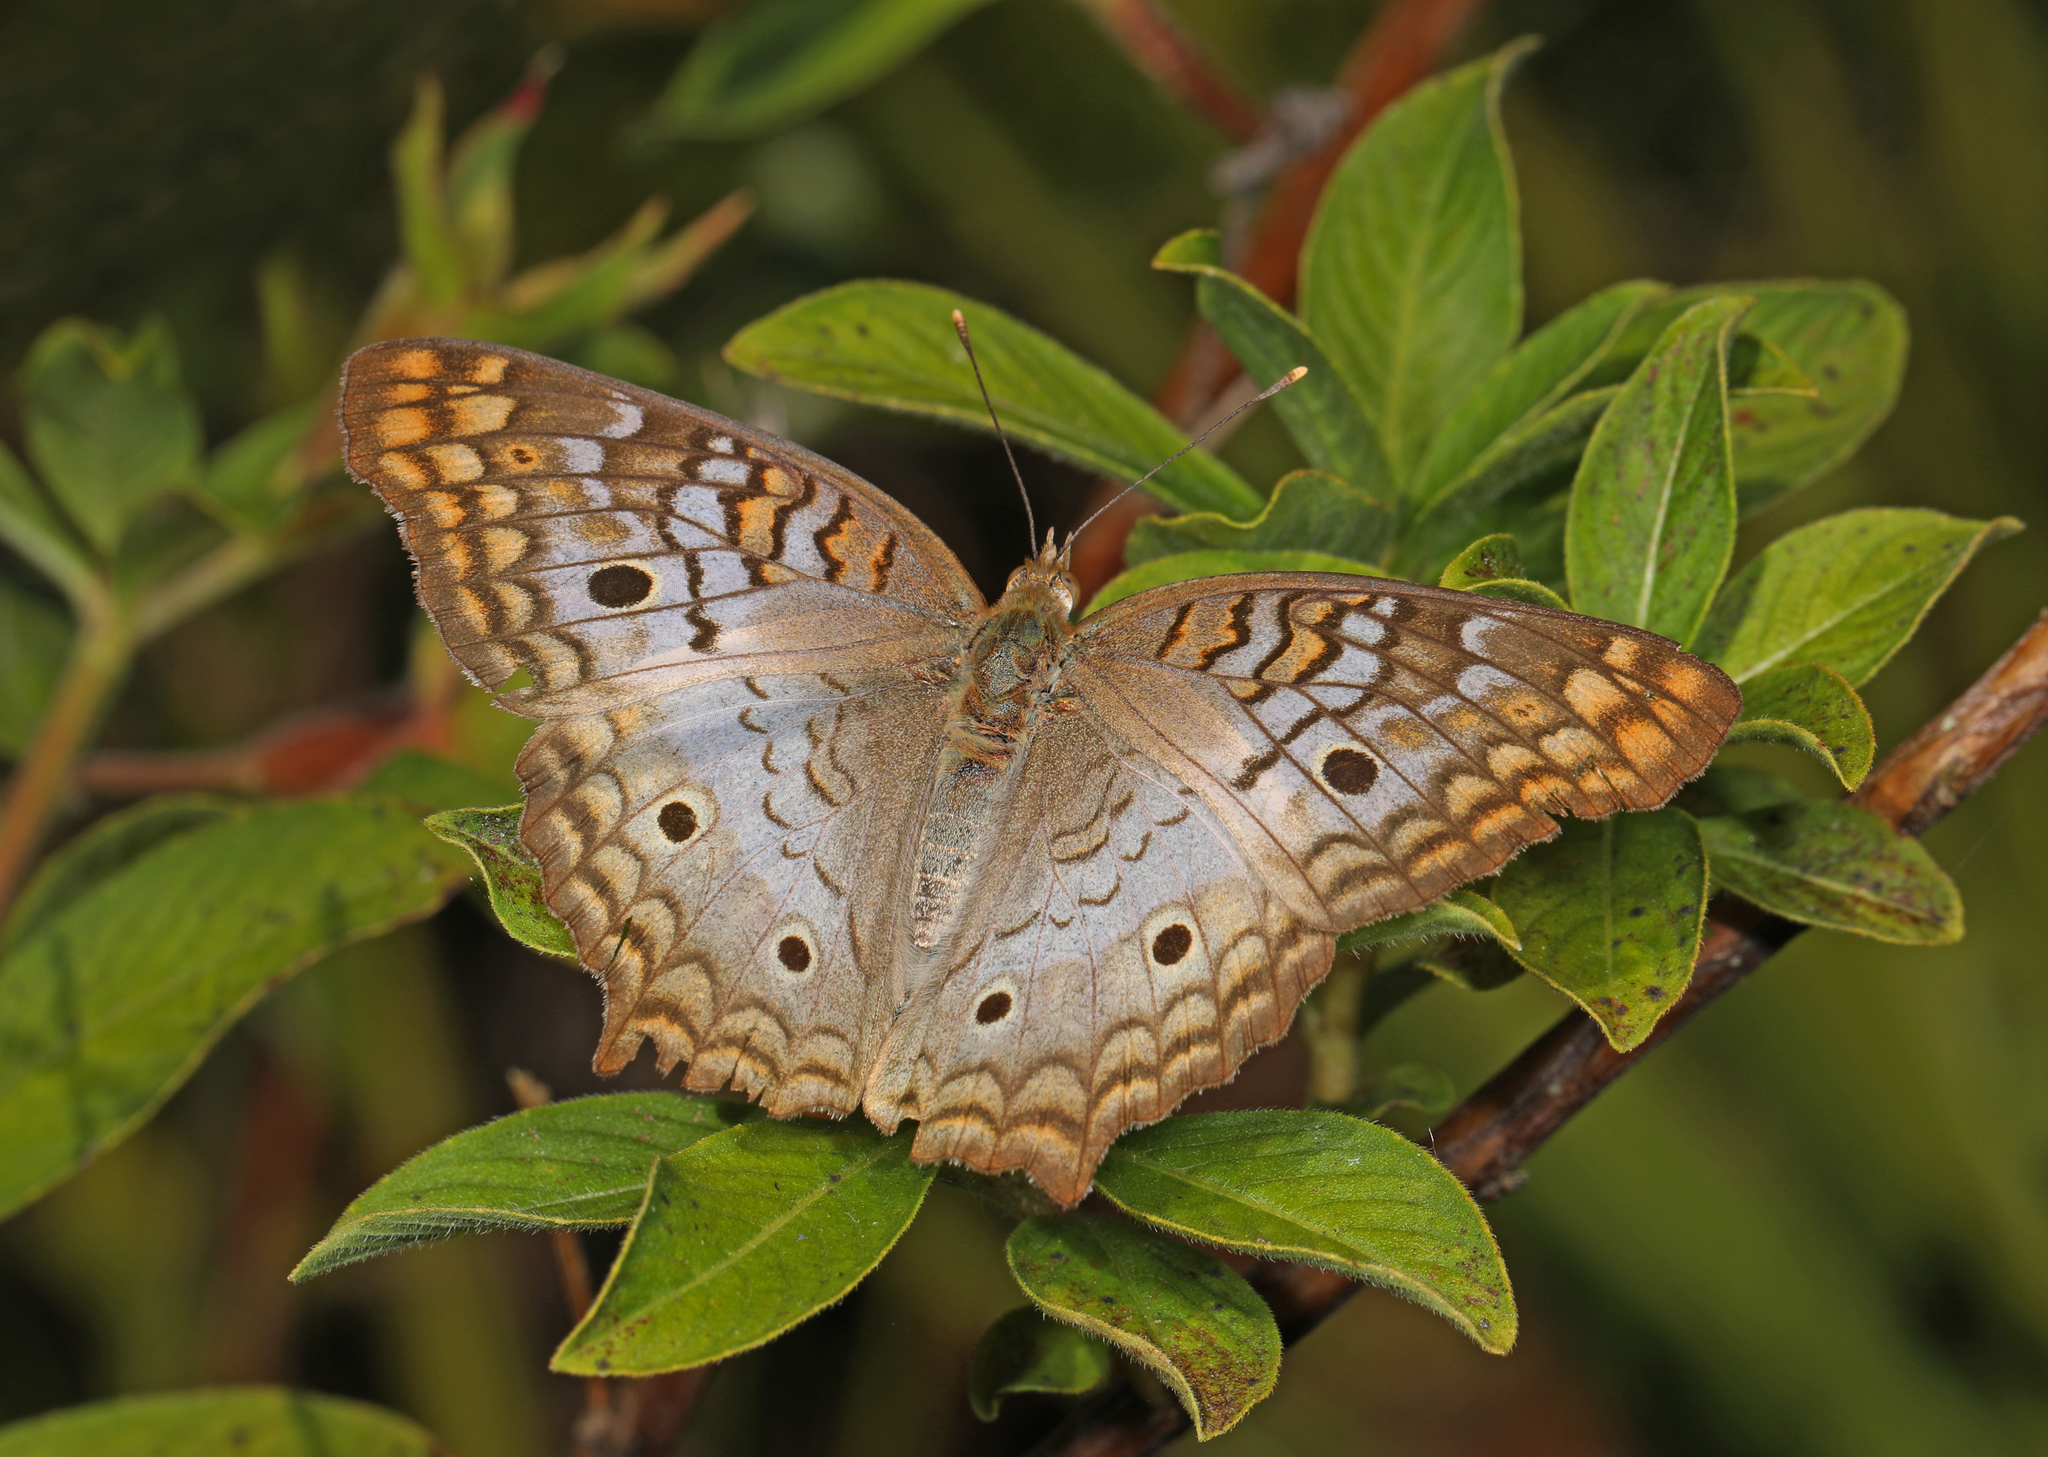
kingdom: Animalia
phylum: Arthropoda
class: Insecta
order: Lepidoptera
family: Nymphalidae
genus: Anartia
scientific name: Anartia jatrophae
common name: White peacock
